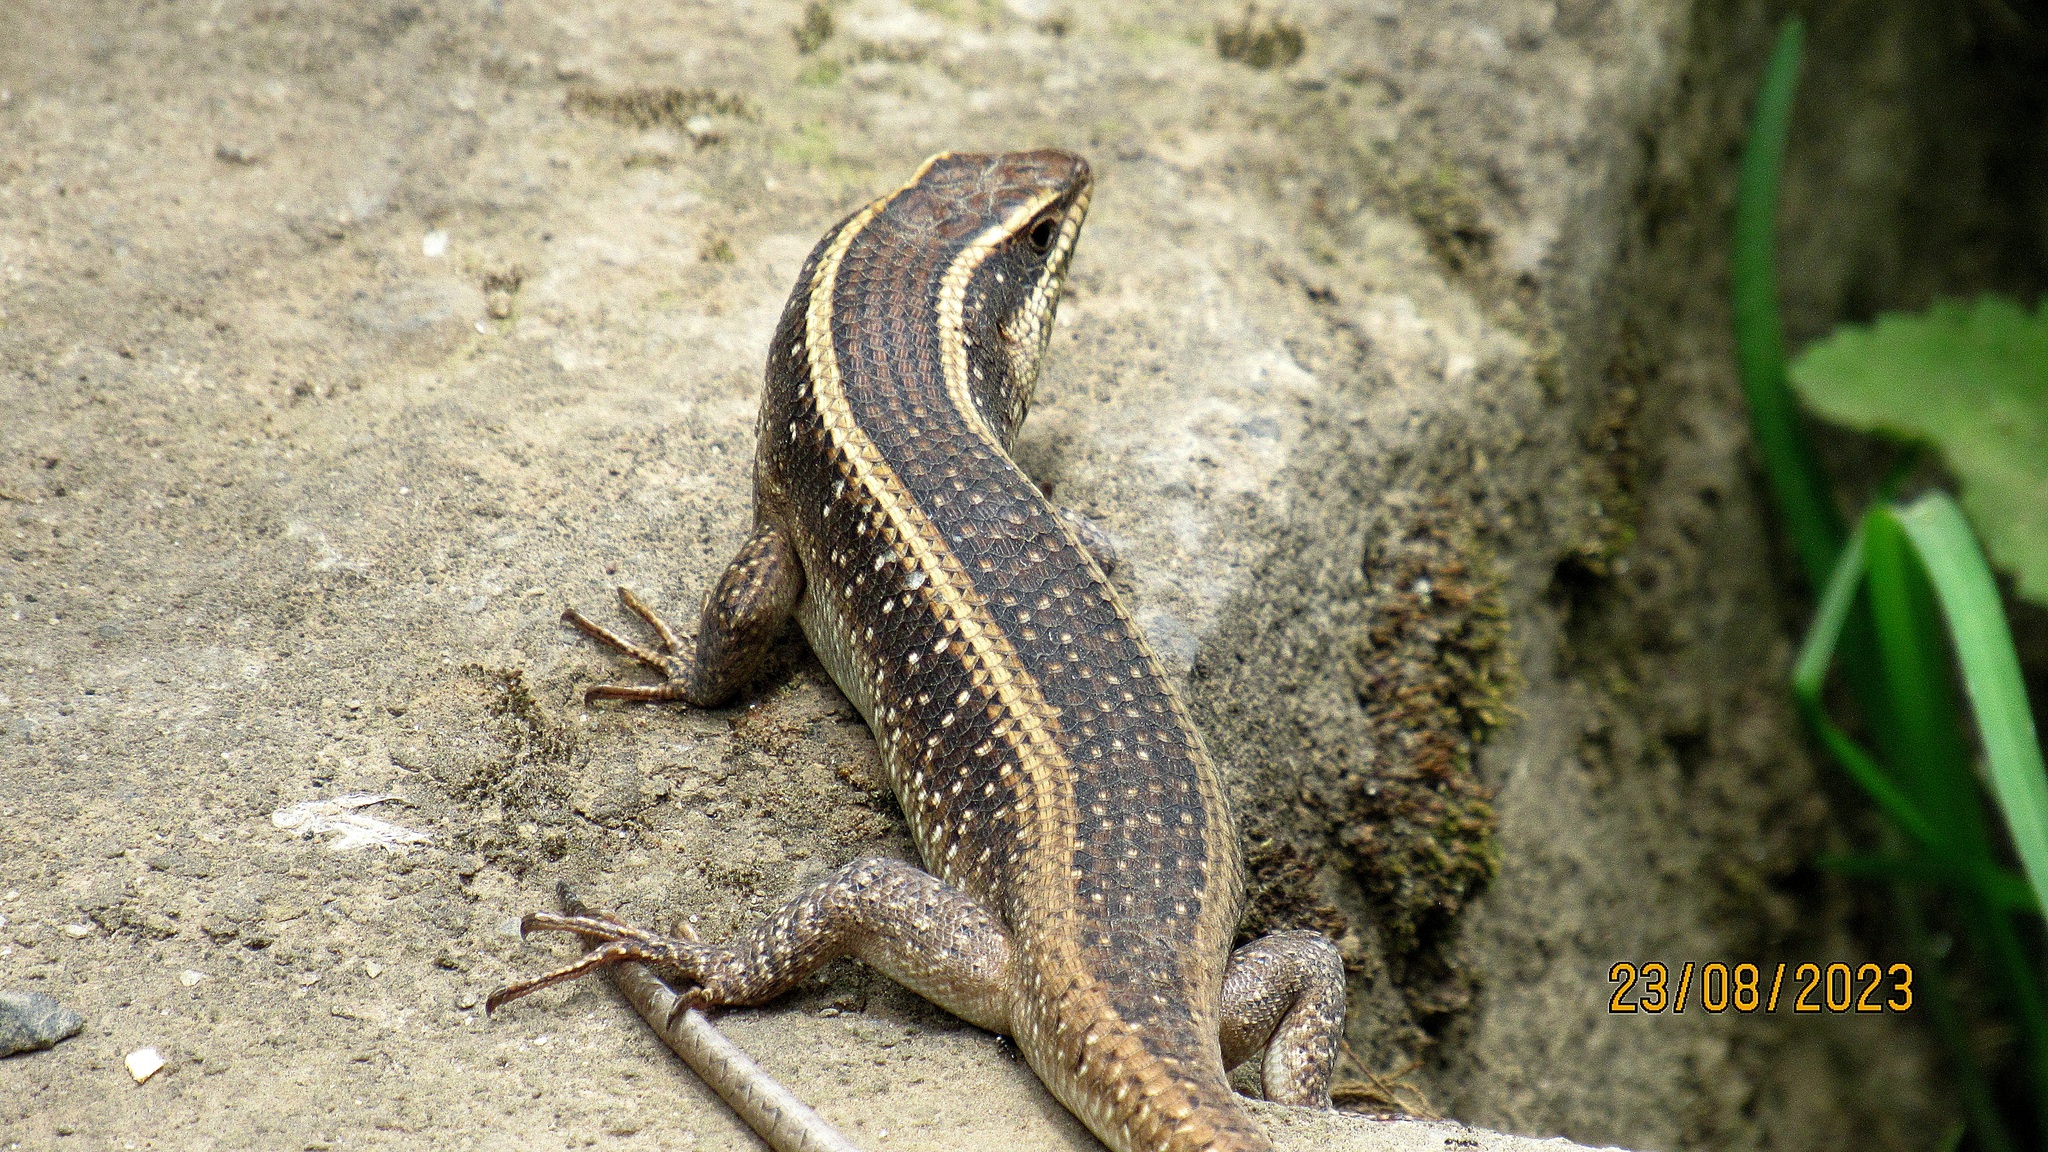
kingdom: Animalia
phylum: Chordata
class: Squamata
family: Scincidae
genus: Trachylepis
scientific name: Trachylepis striata
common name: African striped mabuya
